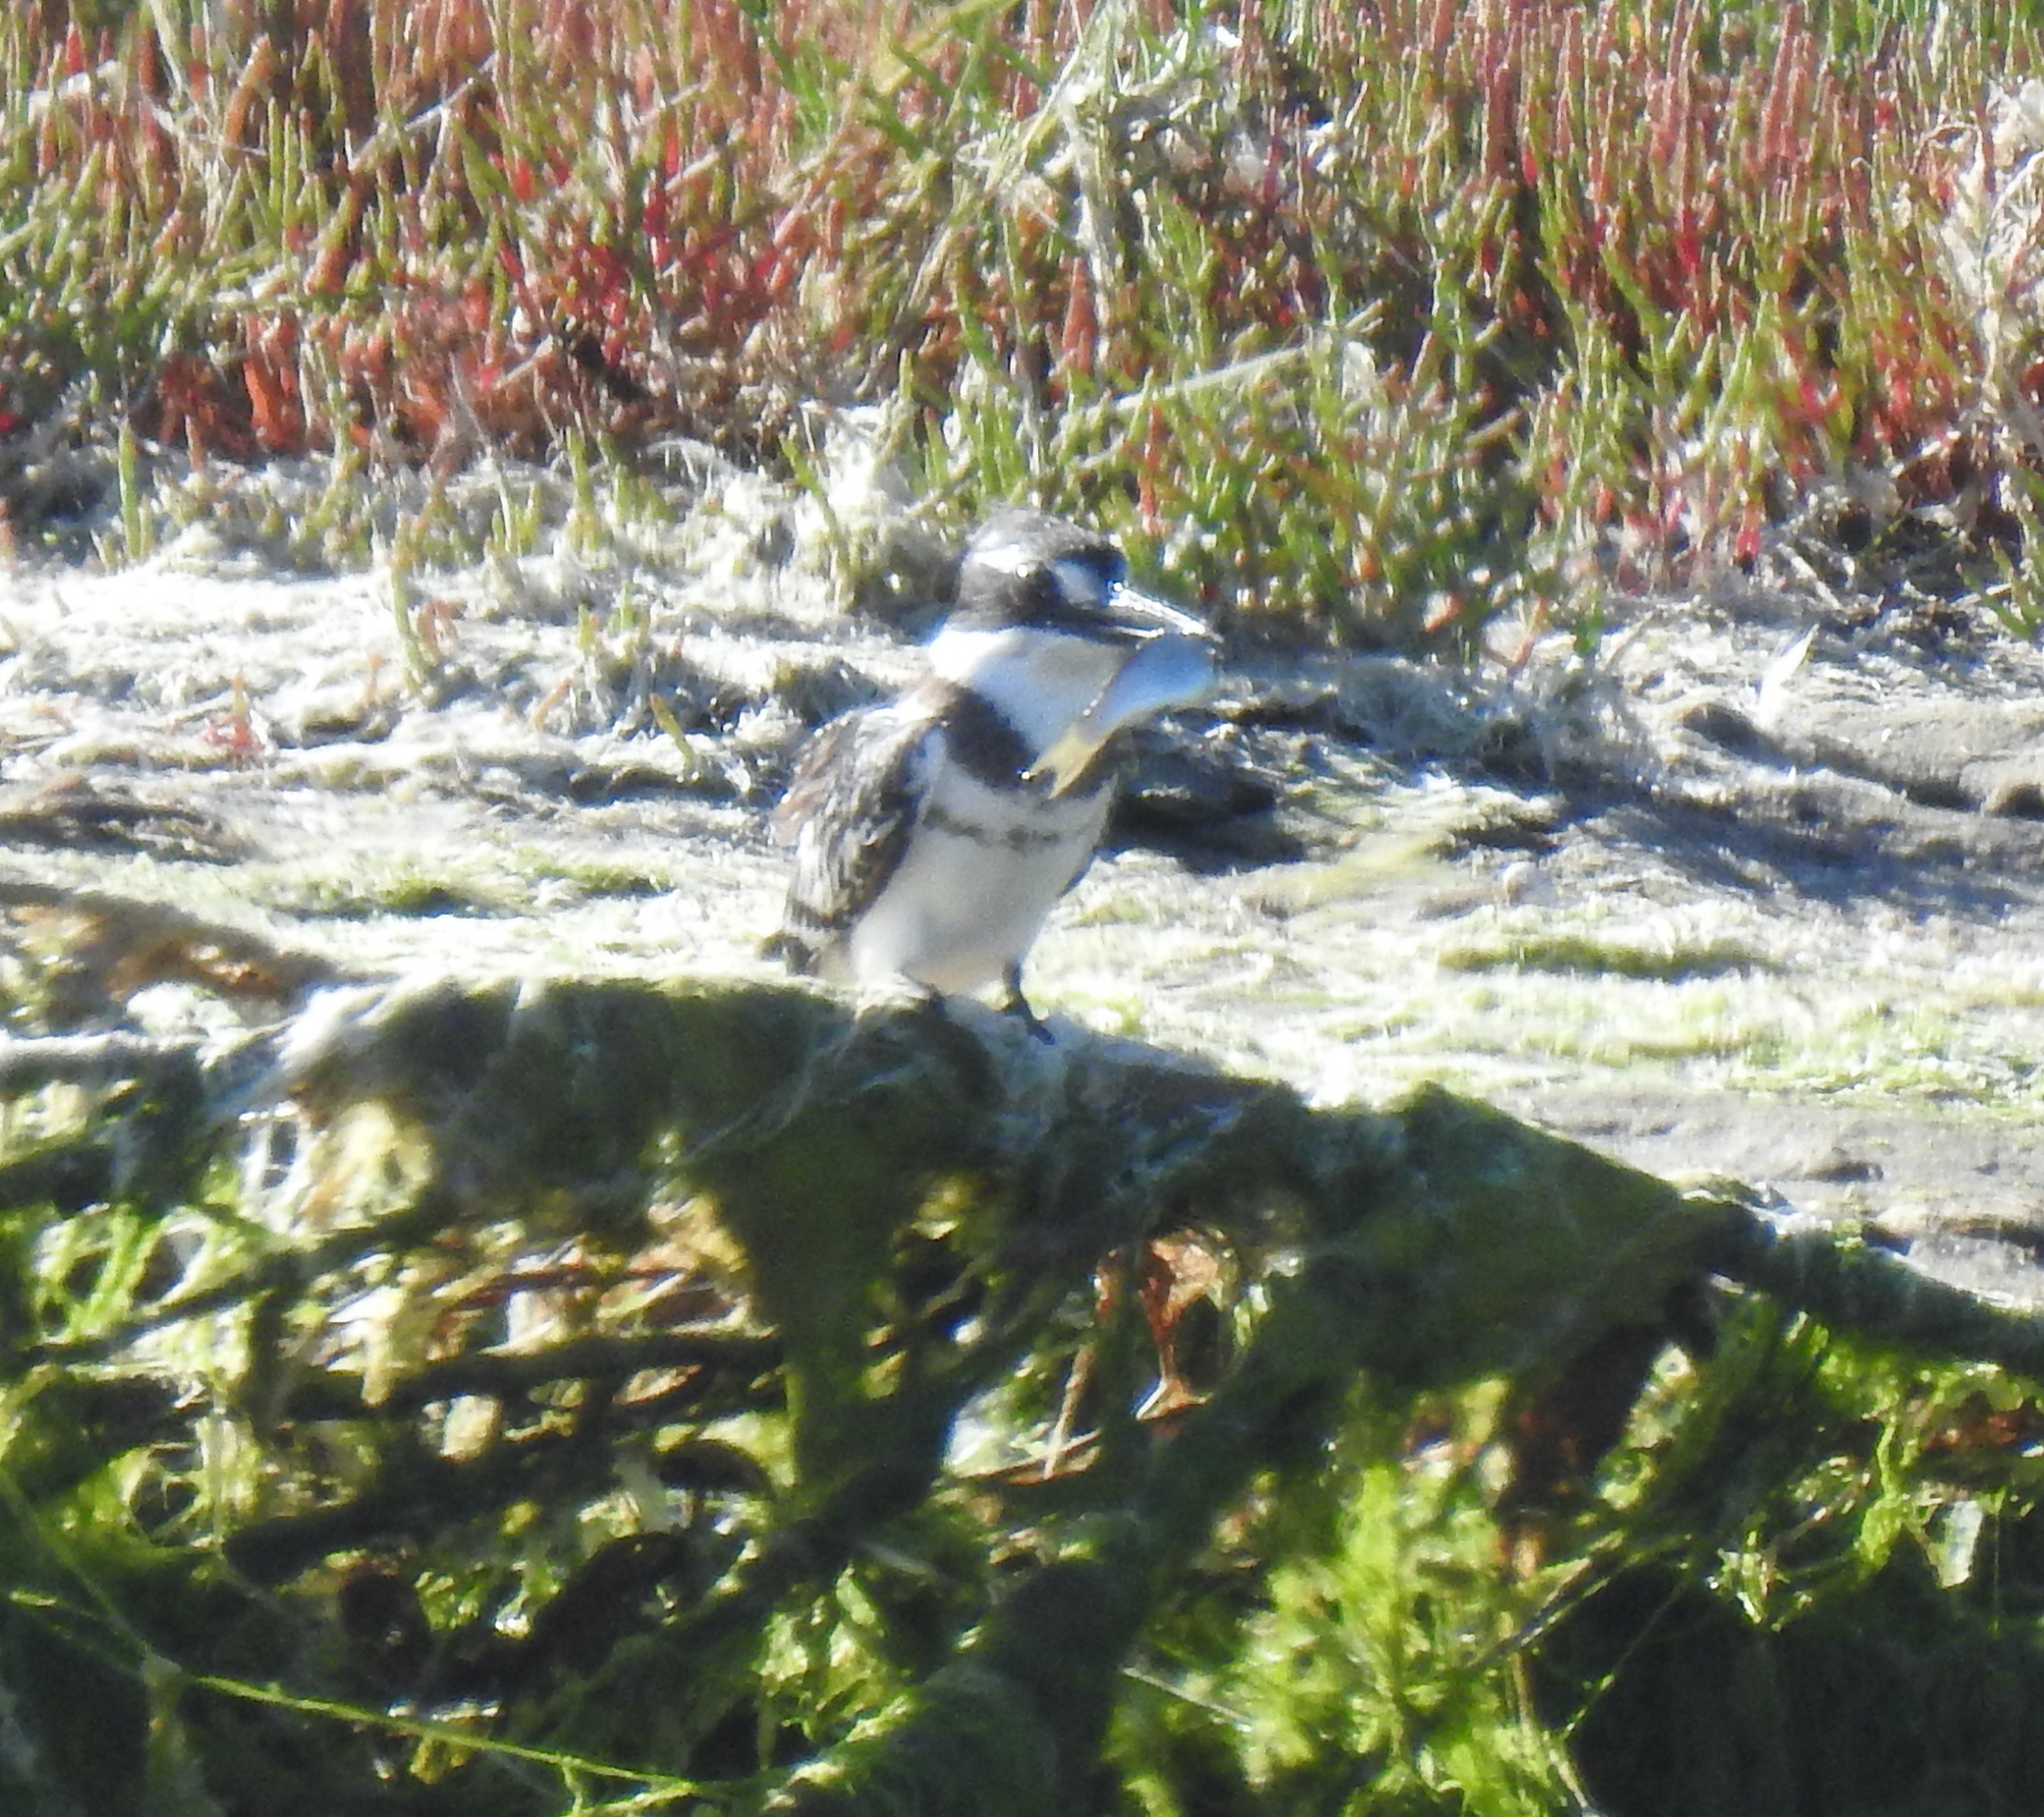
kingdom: Animalia
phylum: Chordata
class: Aves
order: Coraciiformes
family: Alcedinidae
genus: Ceryle
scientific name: Ceryle rudis
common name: Pied kingfisher
